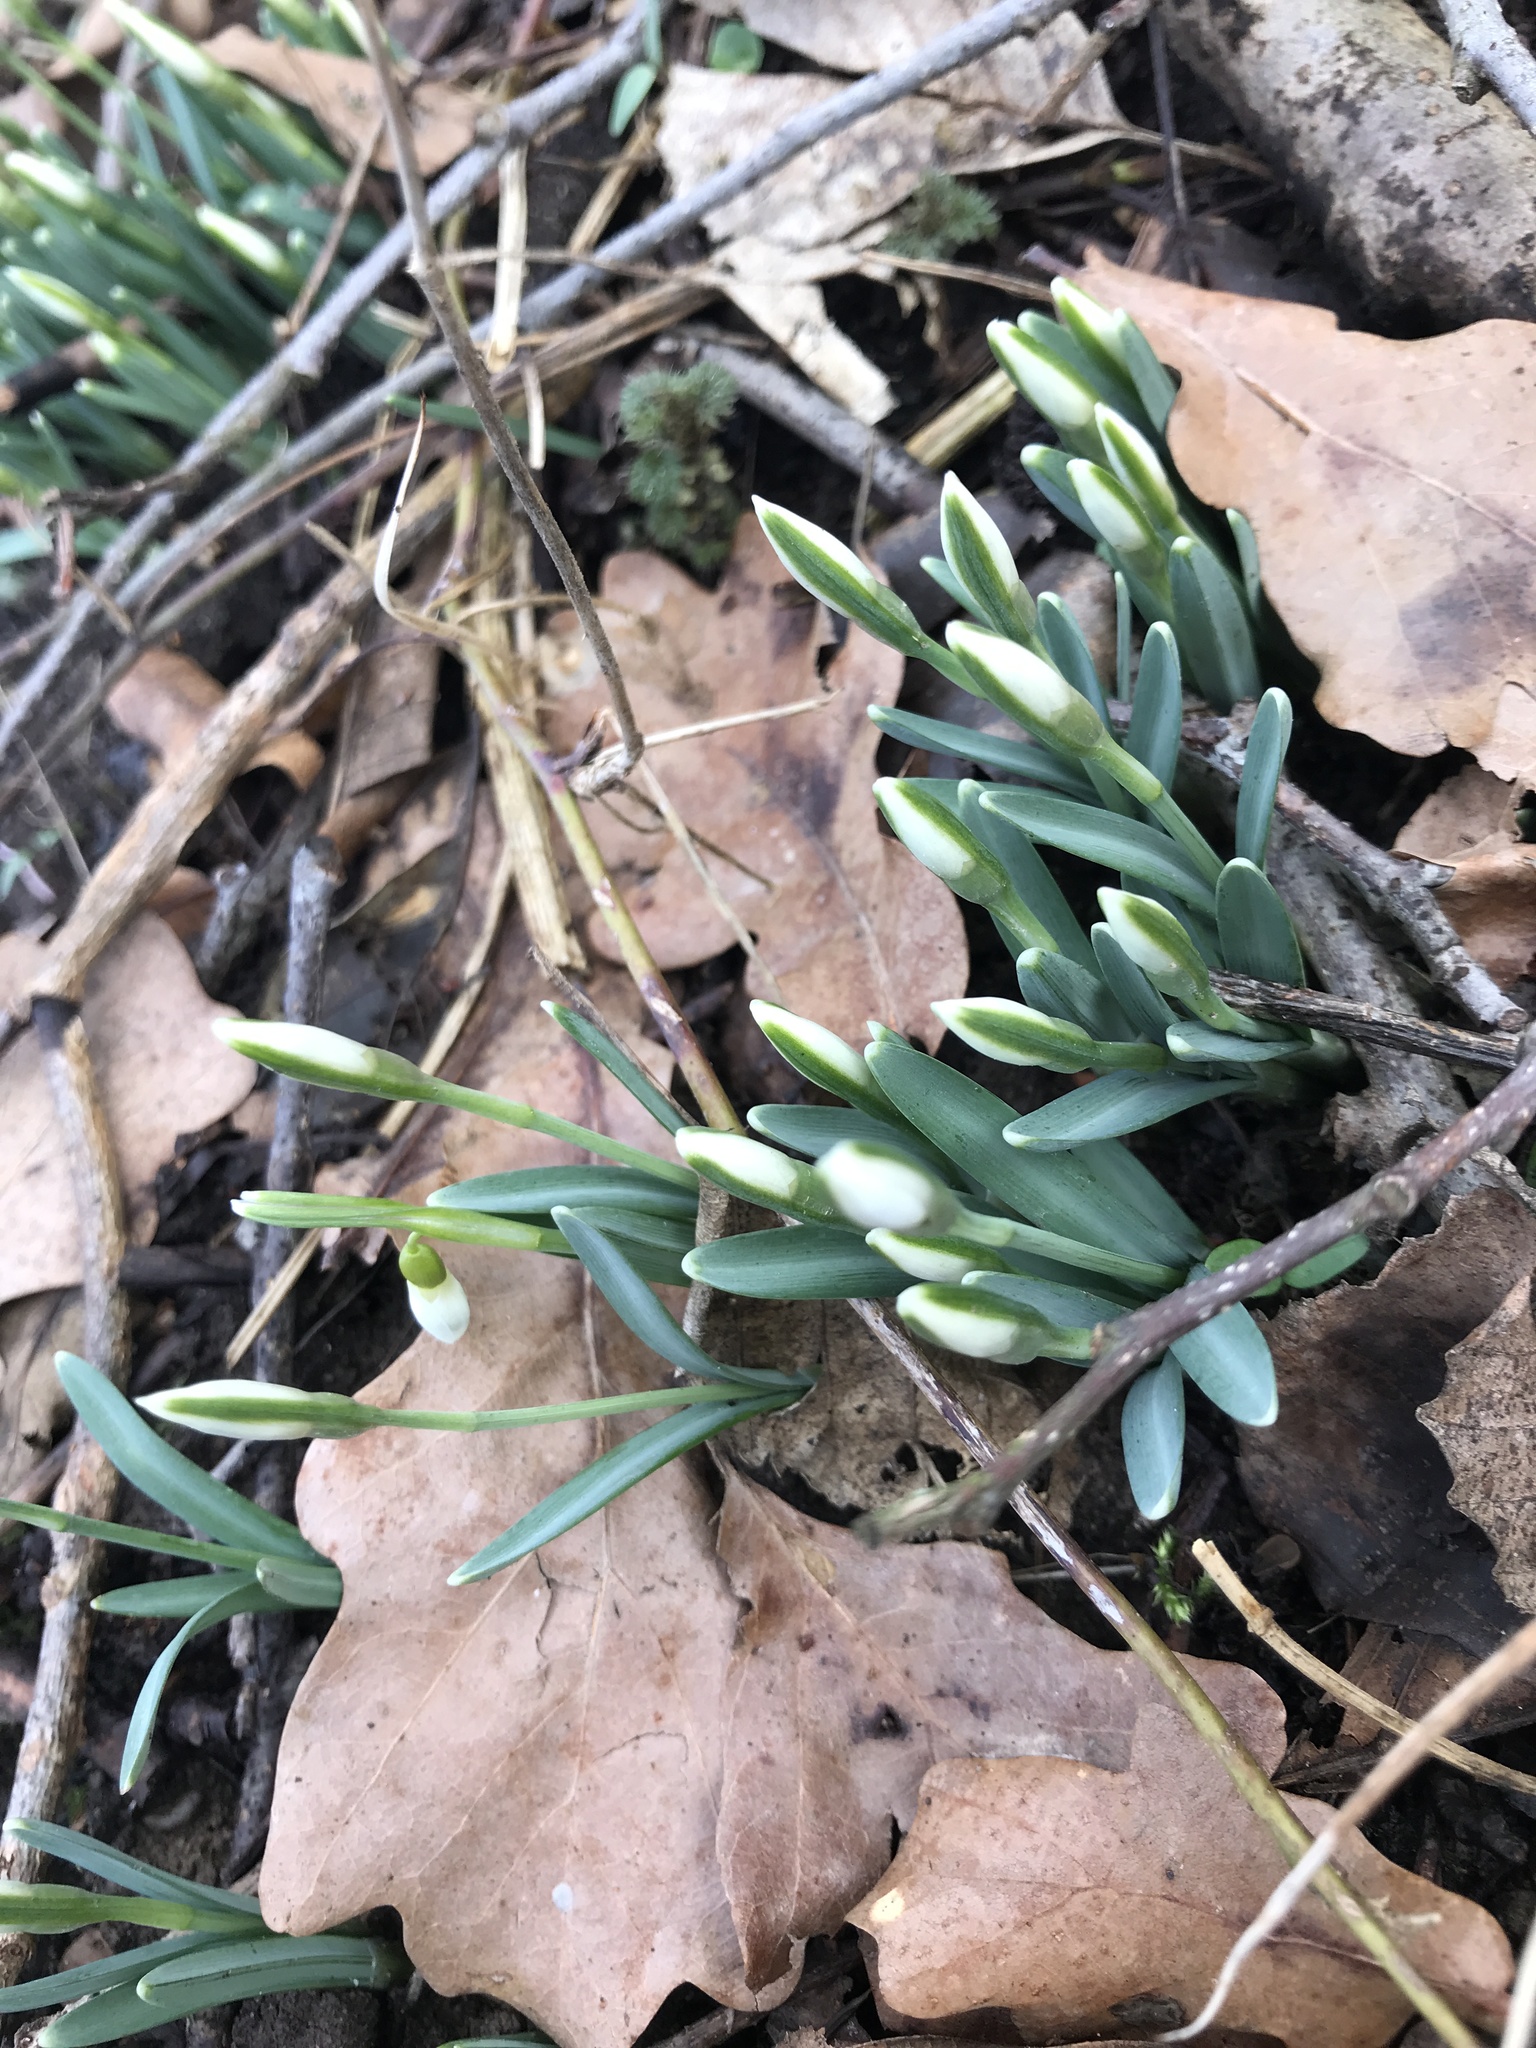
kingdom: Plantae
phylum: Tracheophyta
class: Liliopsida
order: Asparagales
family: Amaryllidaceae
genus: Galanthus
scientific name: Galanthus nivalis
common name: Snowdrop
